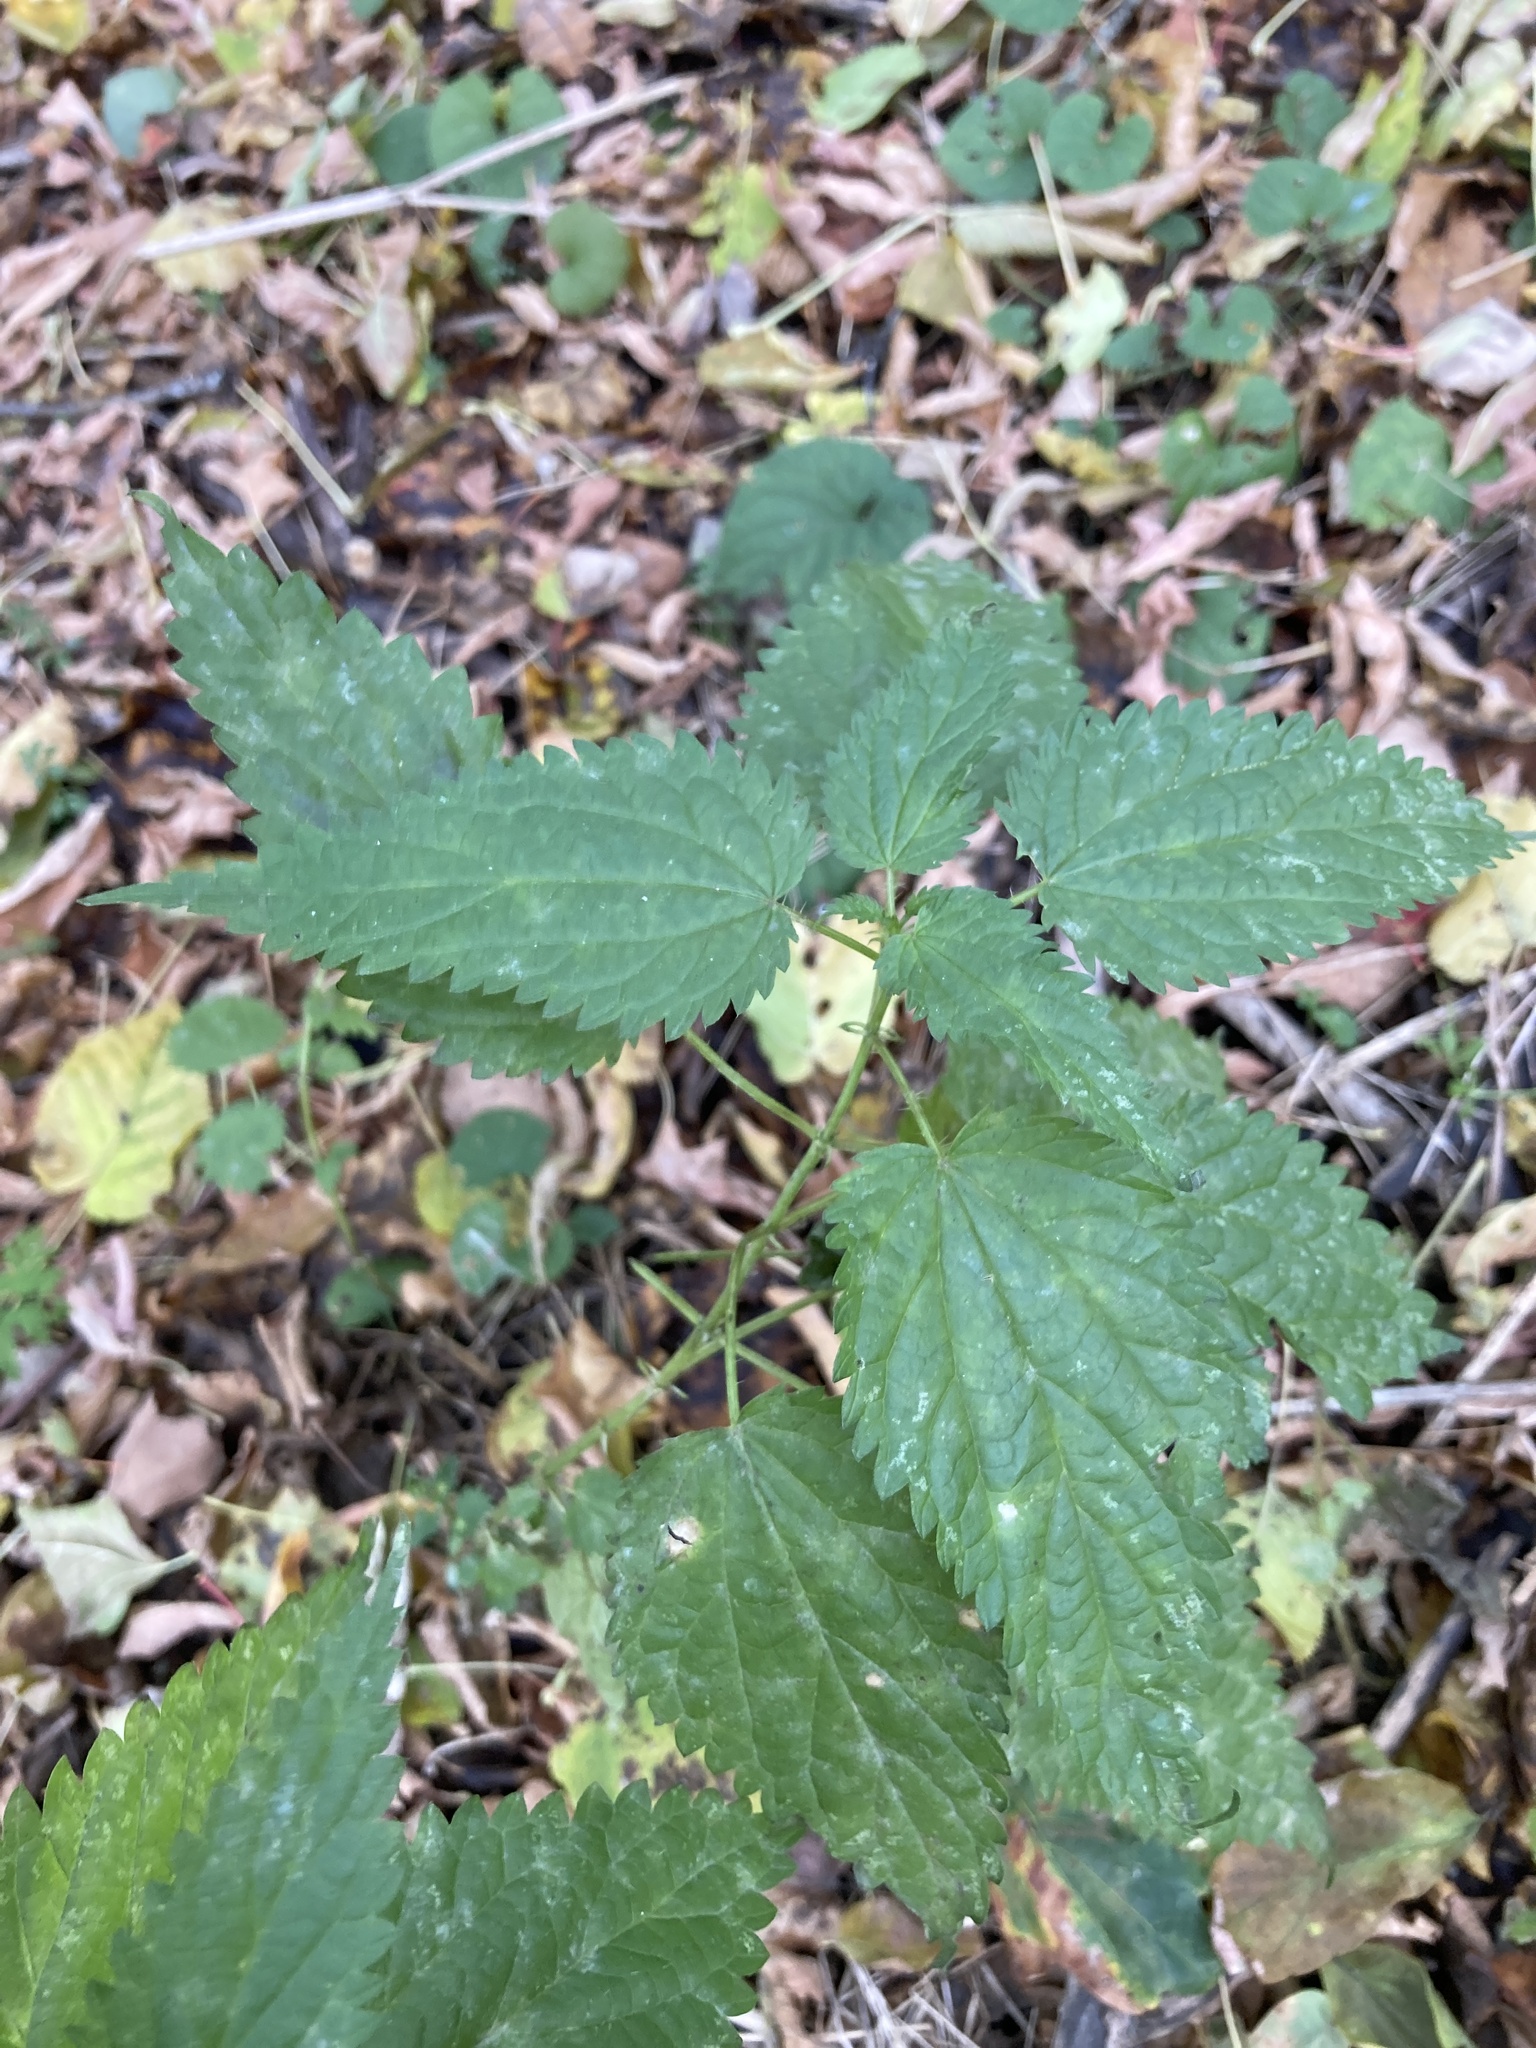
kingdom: Plantae
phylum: Tracheophyta
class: Magnoliopsida
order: Rosales
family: Urticaceae
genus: Urtica
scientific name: Urtica dioica
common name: Common nettle
